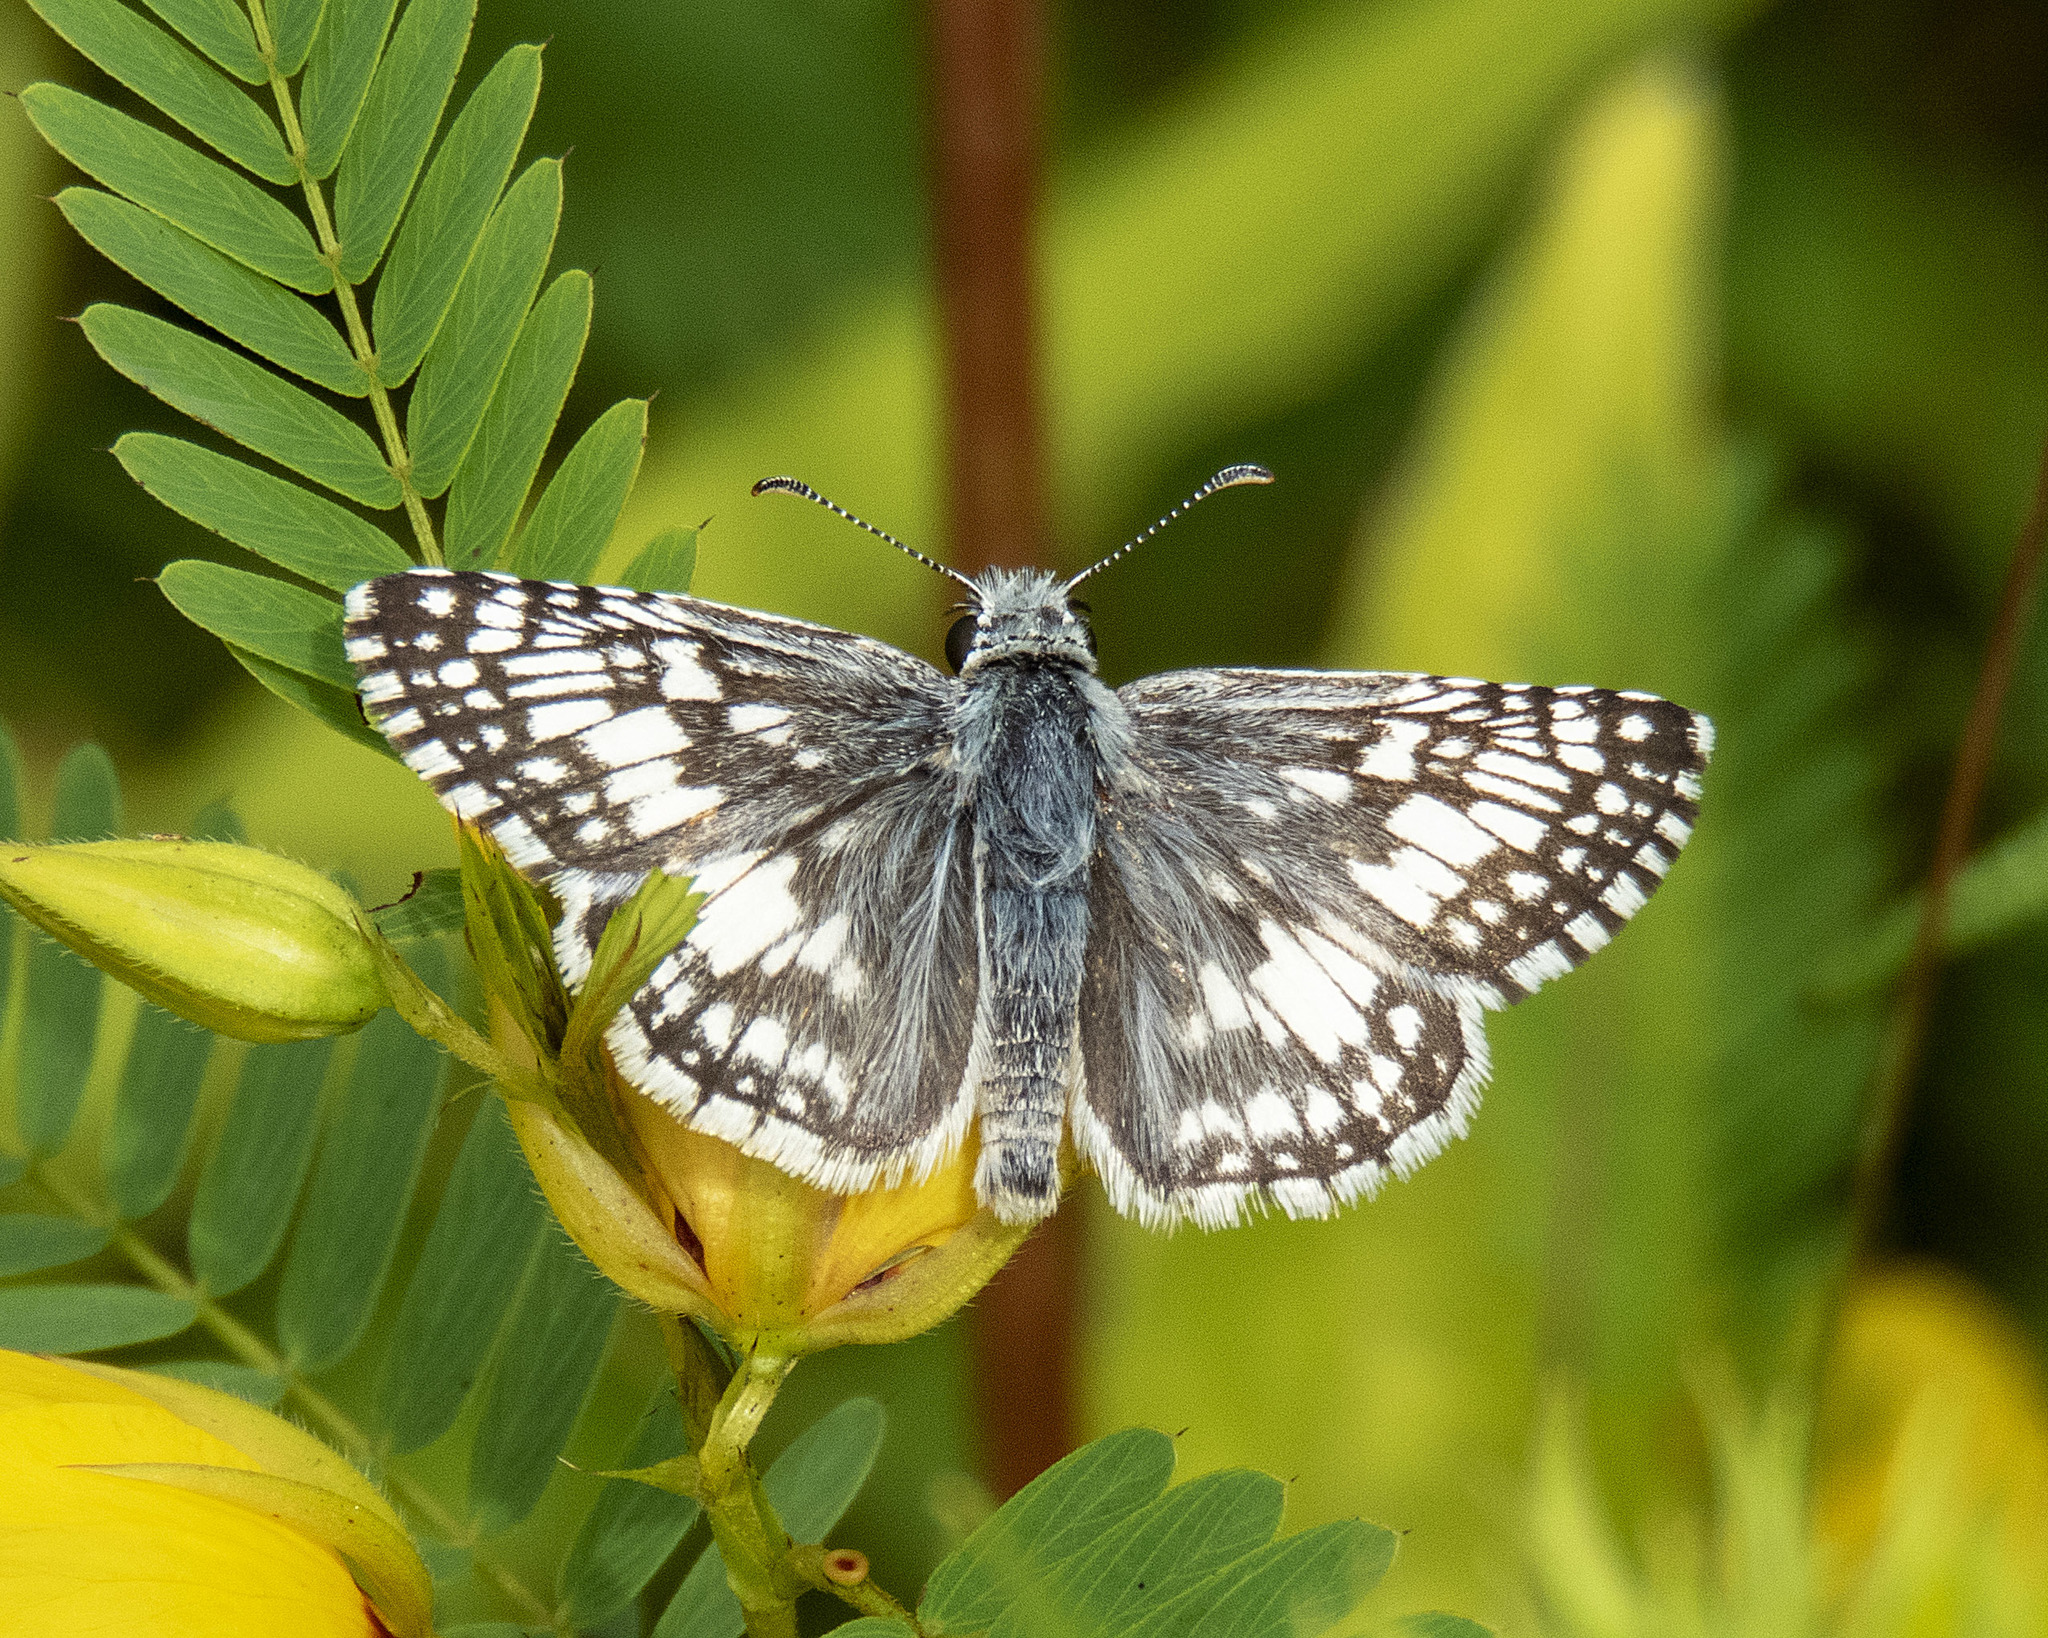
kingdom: Animalia
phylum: Arthropoda
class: Insecta
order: Lepidoptera
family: Hesperiidae
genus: Burnsius
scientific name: Burnsius communis
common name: Common checkered-skipper
